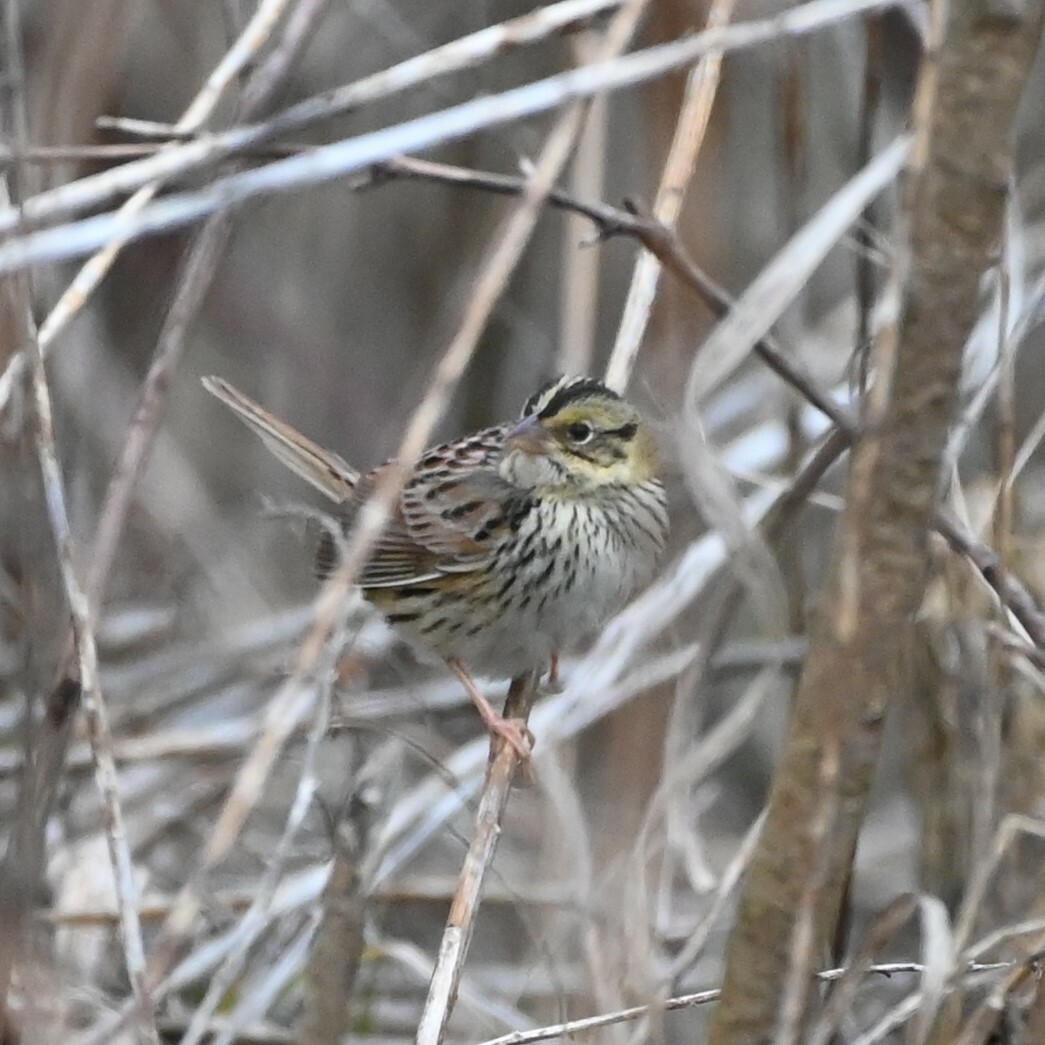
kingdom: Animalia
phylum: Chordata
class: Aves
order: Passeriformes
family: Passerellidae
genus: Centronyx
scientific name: Centronyx henslowii
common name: Henslow's sparrow
